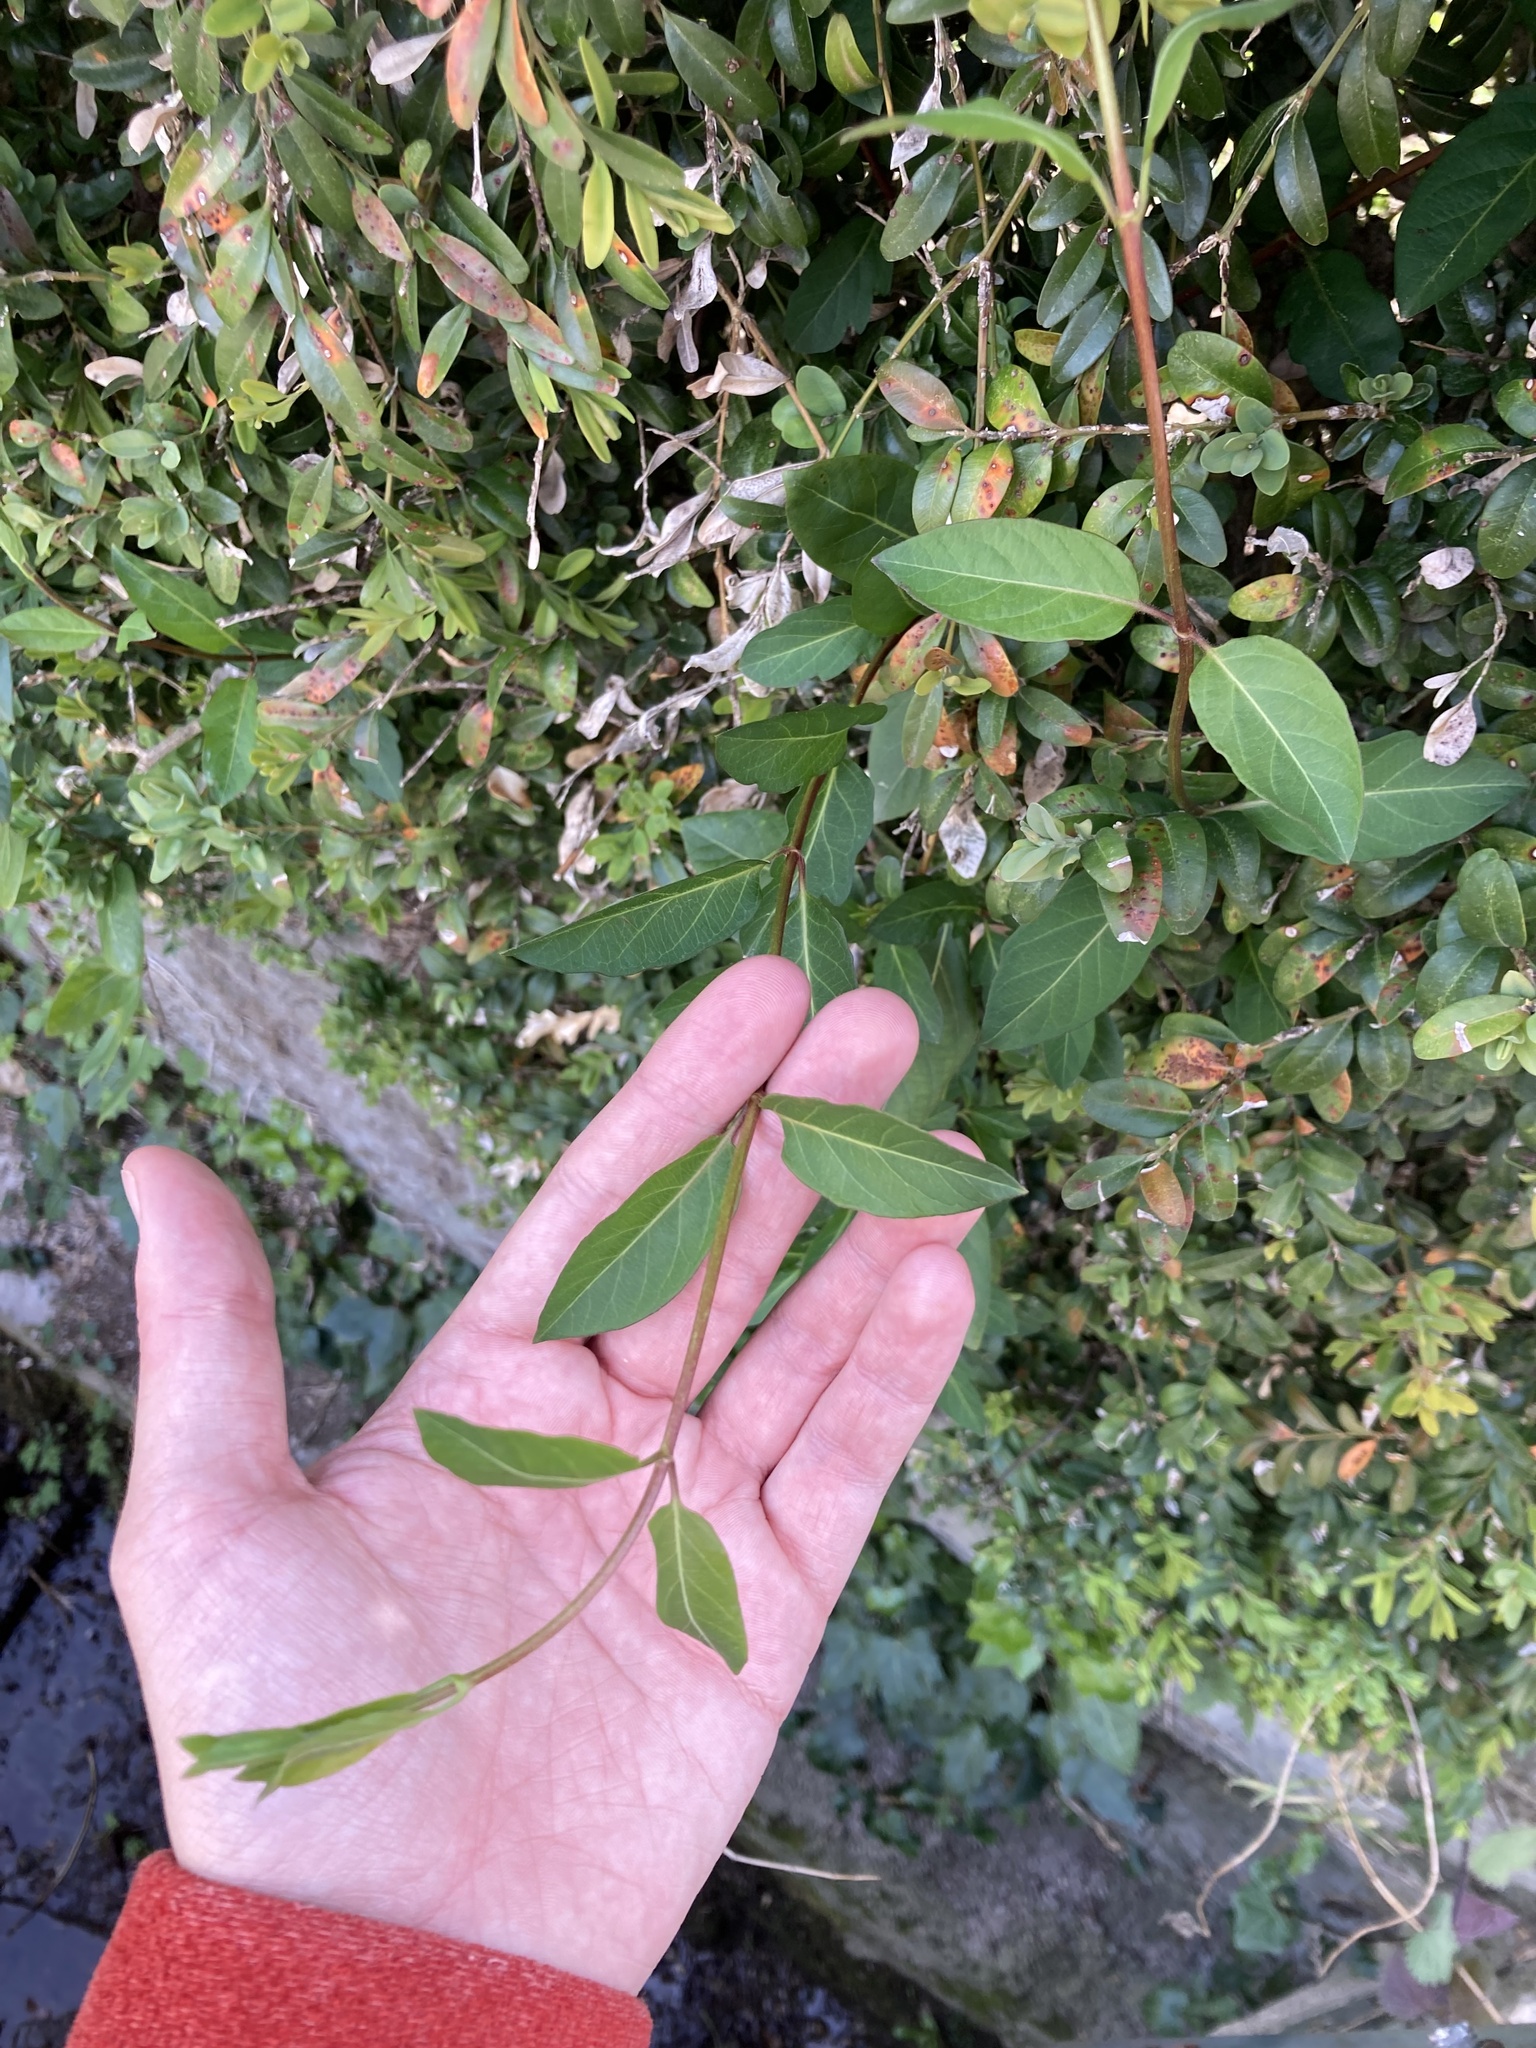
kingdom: Plantae
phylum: Tracheophyta
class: Magnoliopsida
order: Dipsacales
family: Caprifoliaceae
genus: Lonicera
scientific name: Lonicera japonica
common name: Japanese honeysuckle
